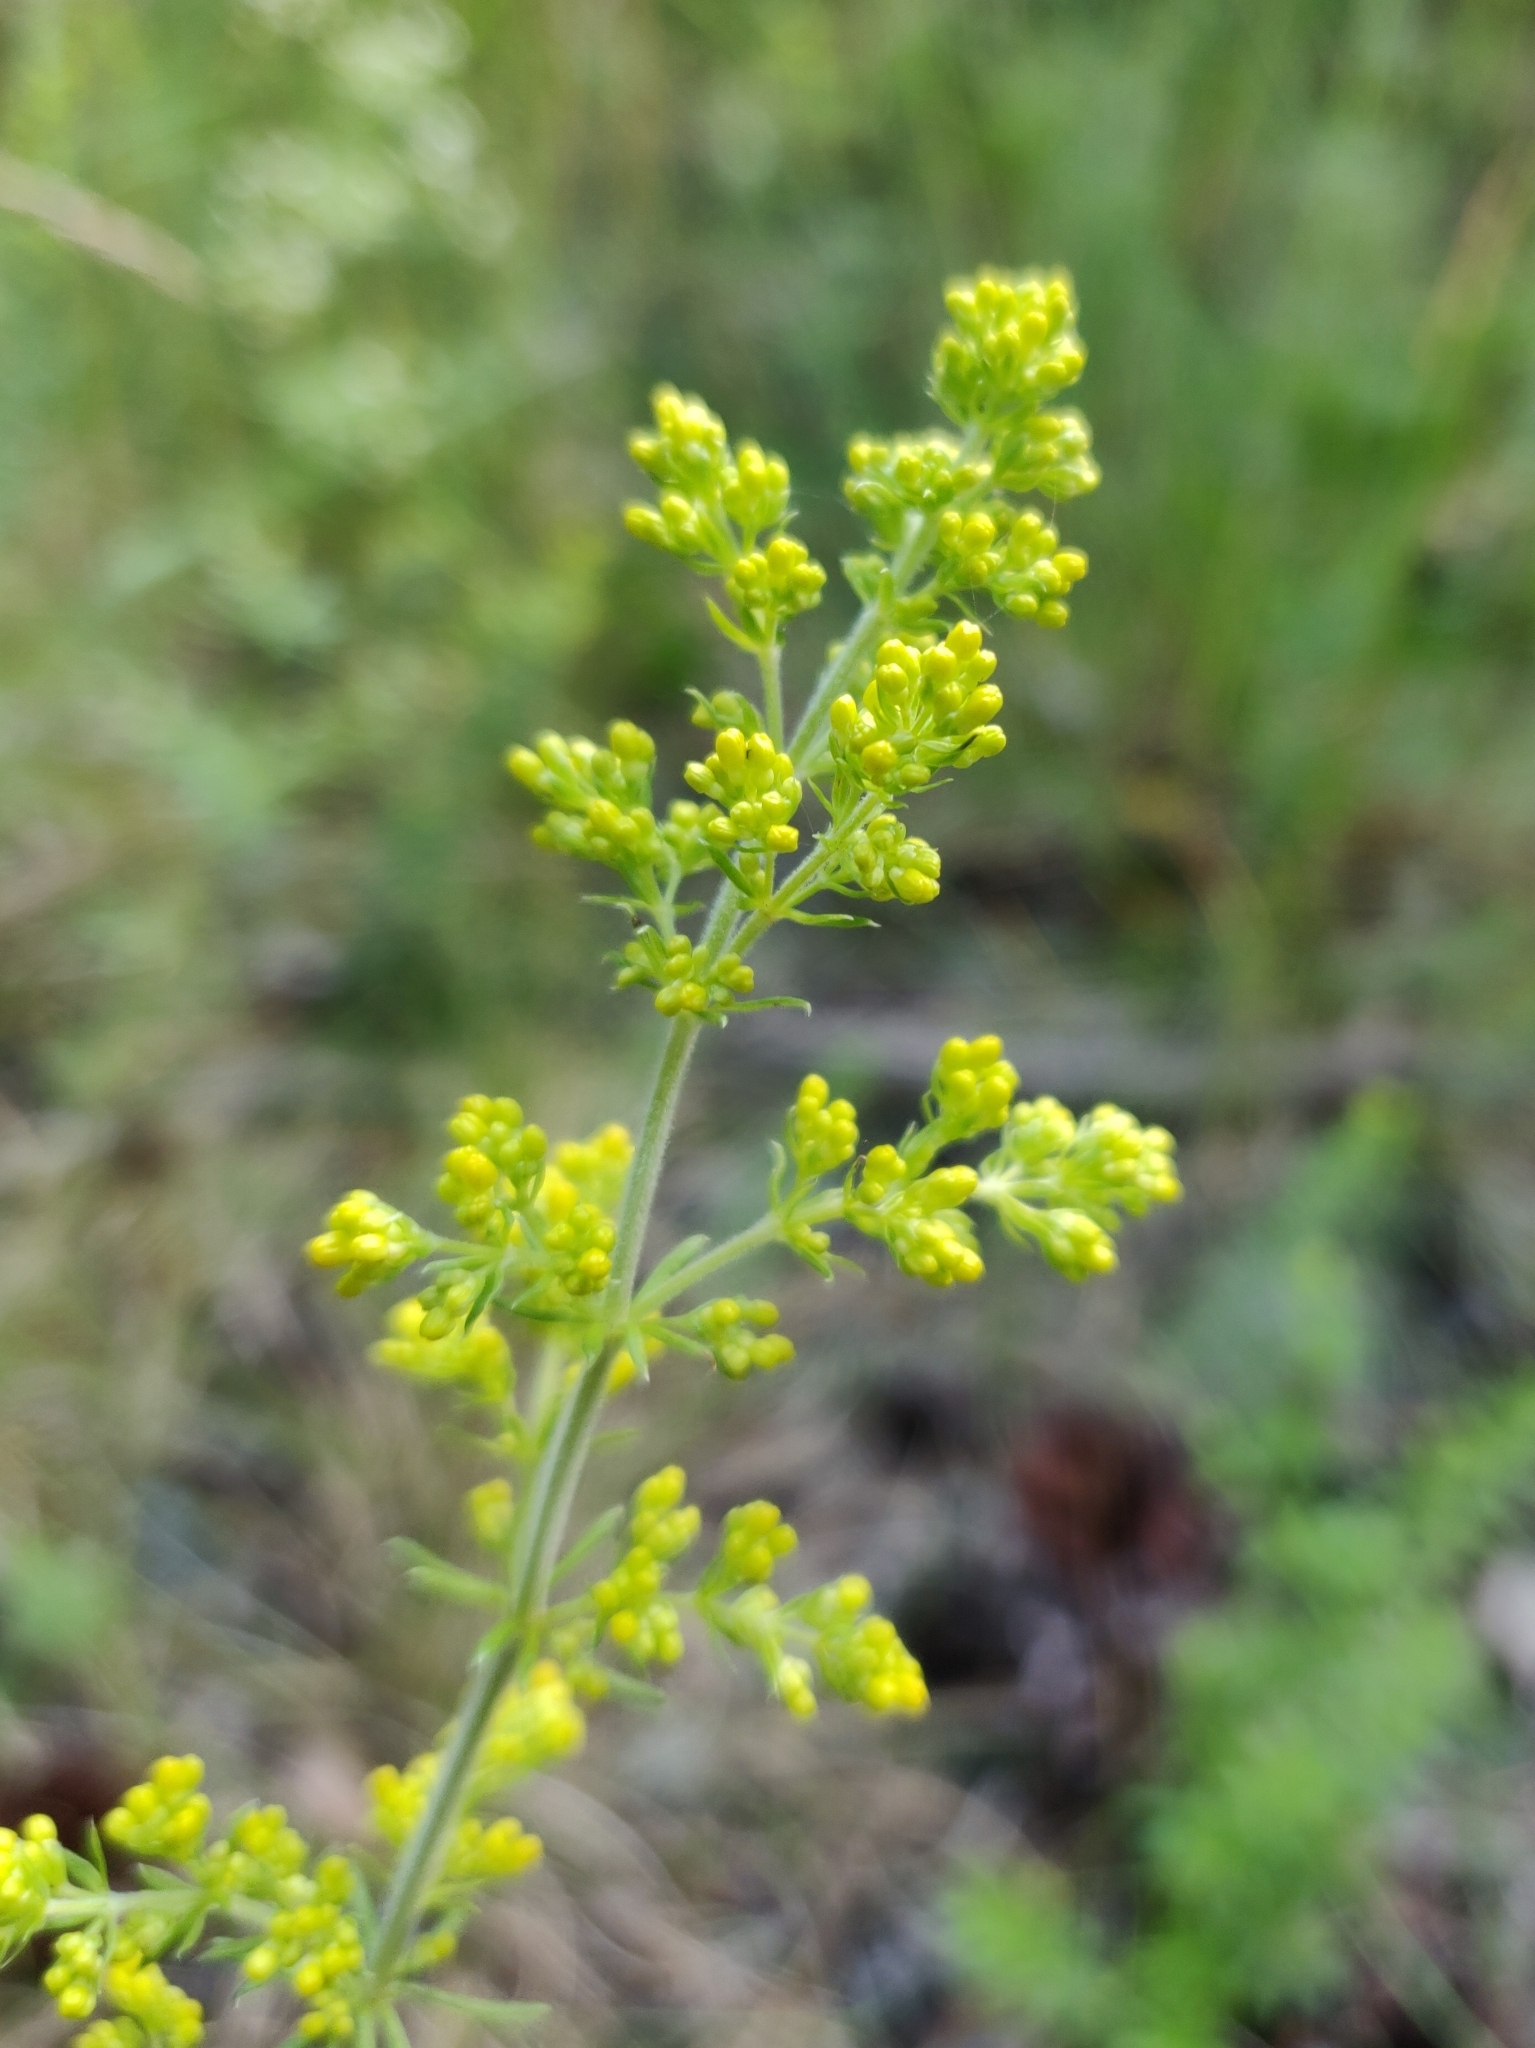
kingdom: Plantae
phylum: Tracheophyta
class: Magnoliopsida
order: Gentianales
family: Rubiaceae
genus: Galium
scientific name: Galium verum
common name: Lady's bedstraw
